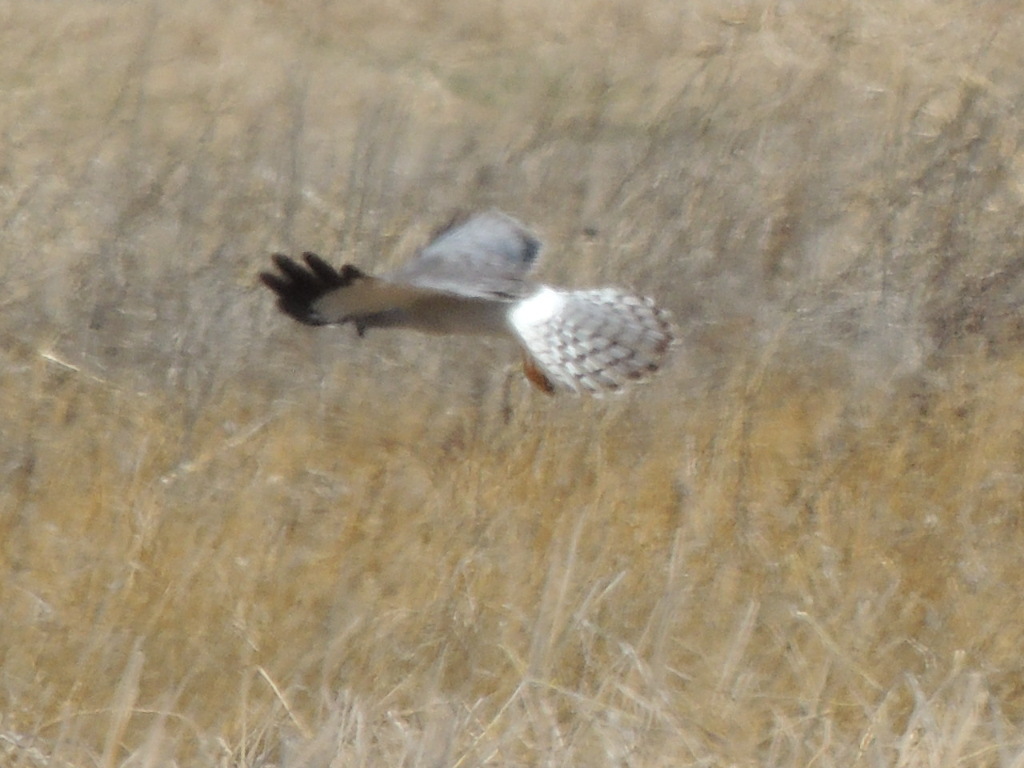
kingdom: Animalia
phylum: Chordata
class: Aves
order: Accipitriformes
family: Accipitridae
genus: Circus
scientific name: Circus cyaneus
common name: Hen harrier
